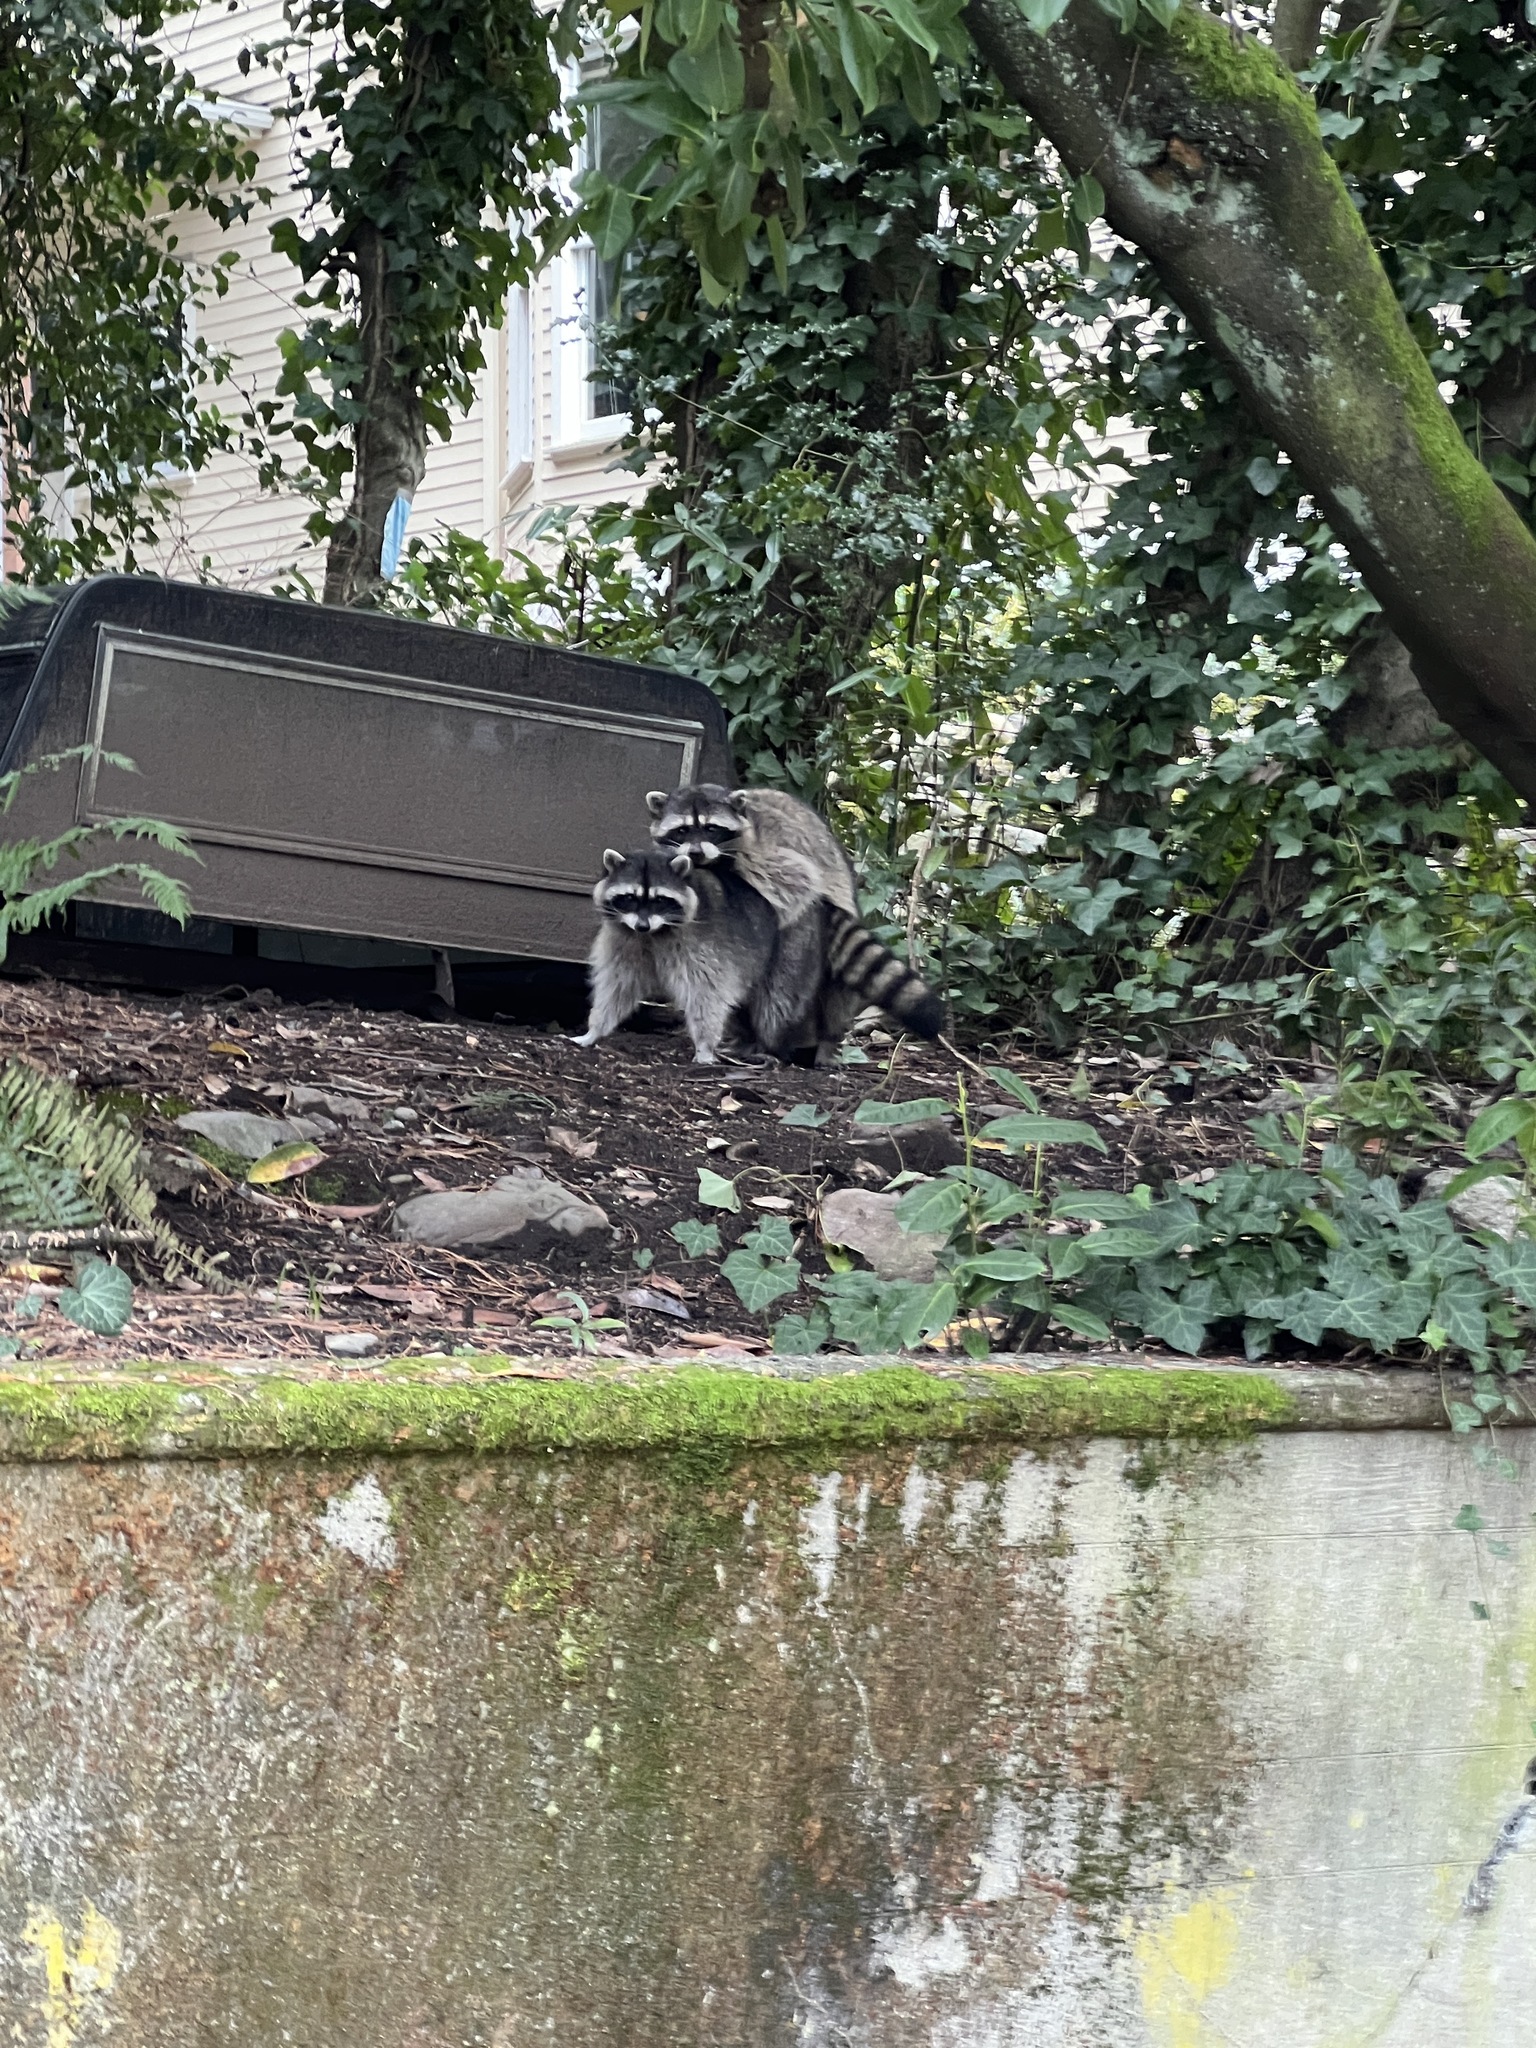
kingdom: Animalia
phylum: Chordata
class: Mammalia
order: Carnivora
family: Procyonidae
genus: Procyon
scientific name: Procyon lotor
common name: Raccoon
